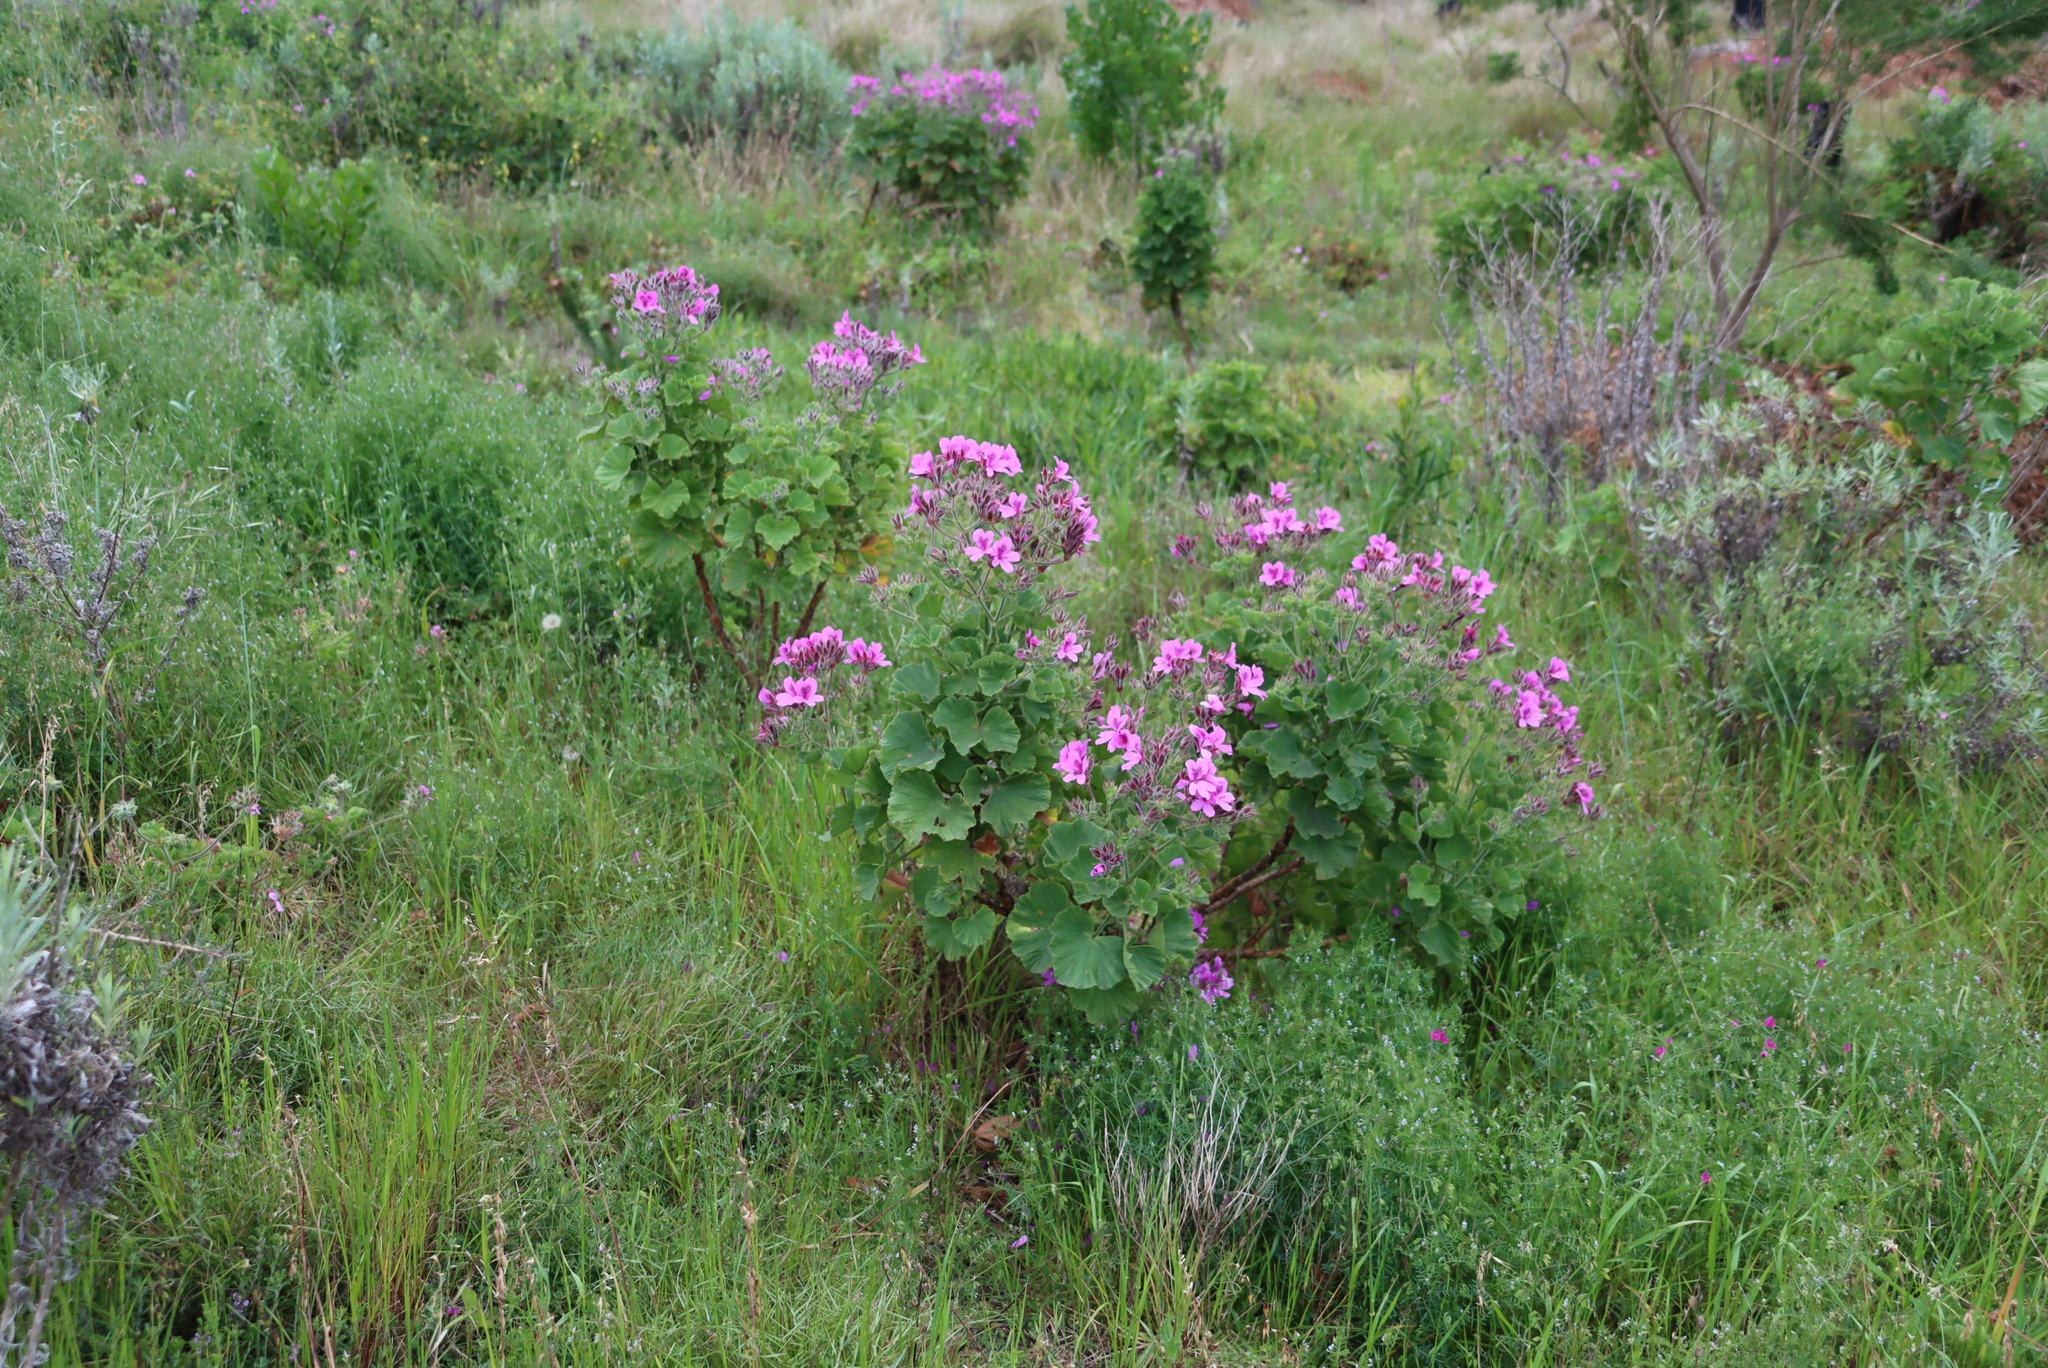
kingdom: Plantae
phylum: Tracheophyta
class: Magnoliopsida
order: Geraniales
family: Geraniaceae
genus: Pelargonium
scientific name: Pelargonium cucullatum
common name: Tree pelargonium
